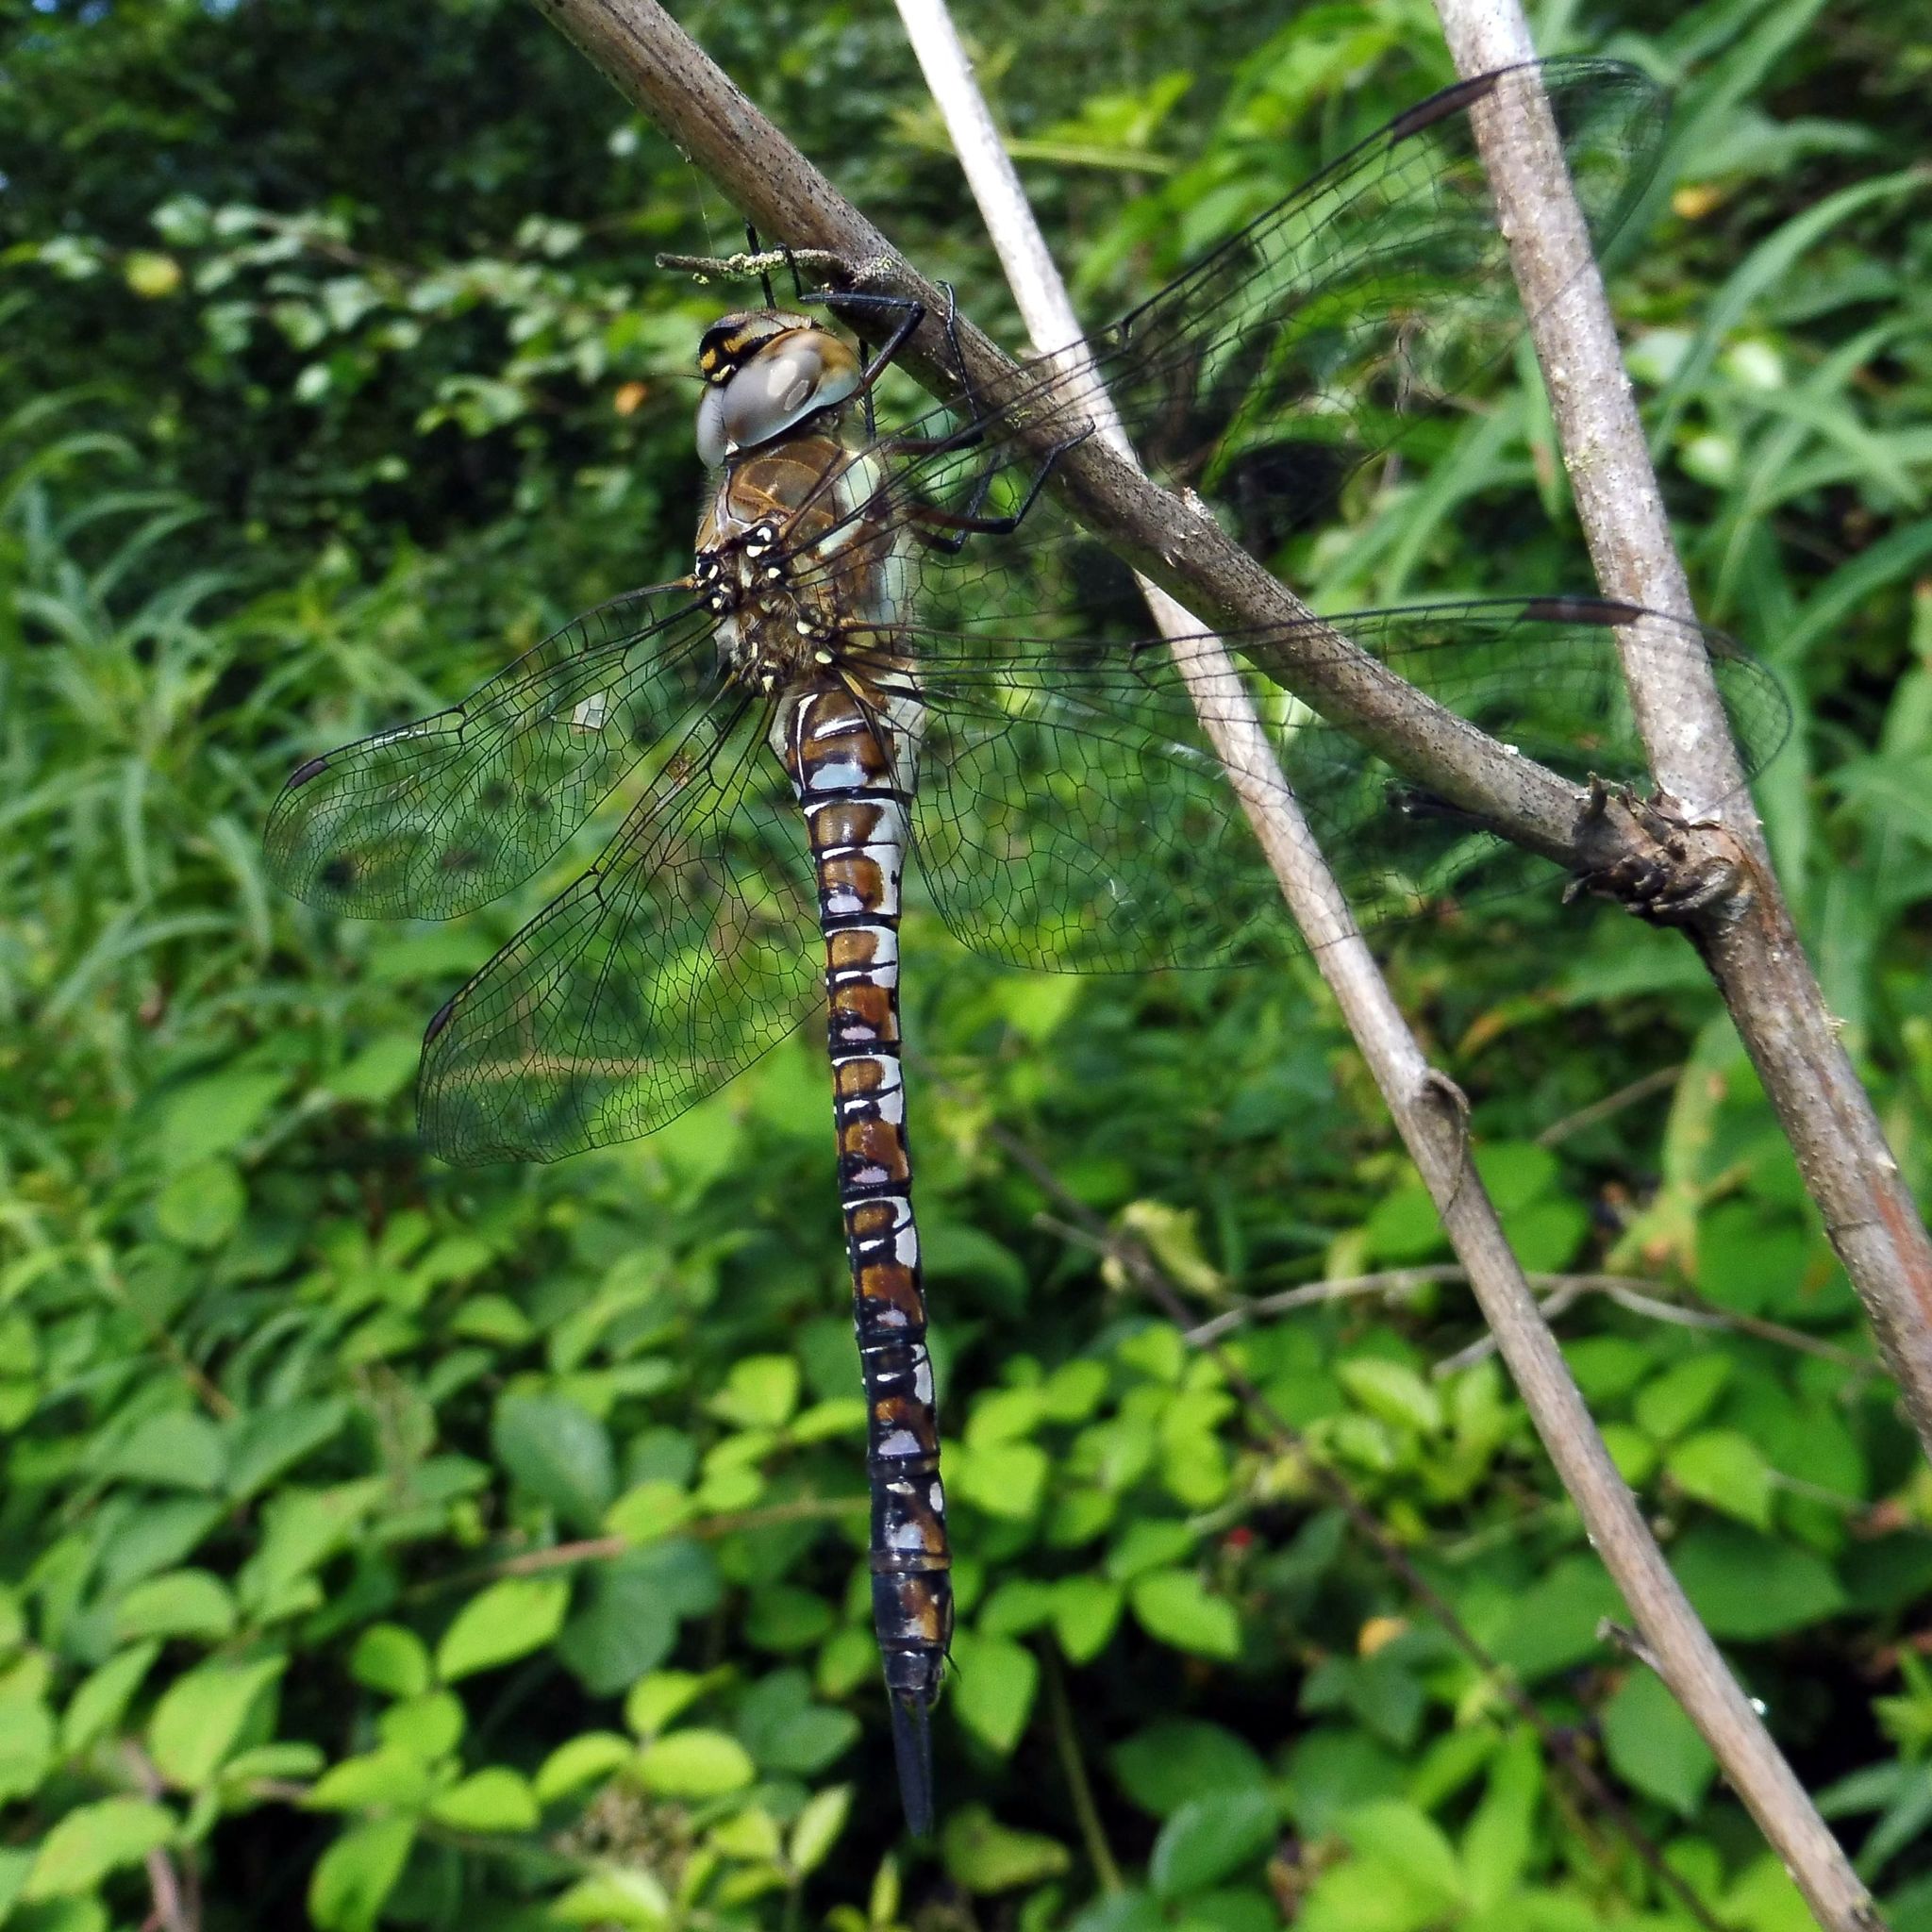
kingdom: Animalia
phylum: Arthropoda
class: Insecta
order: Odonata
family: Aeshnidae
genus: Aeshna
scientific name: Aeshna mixta
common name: Migrant hawker
